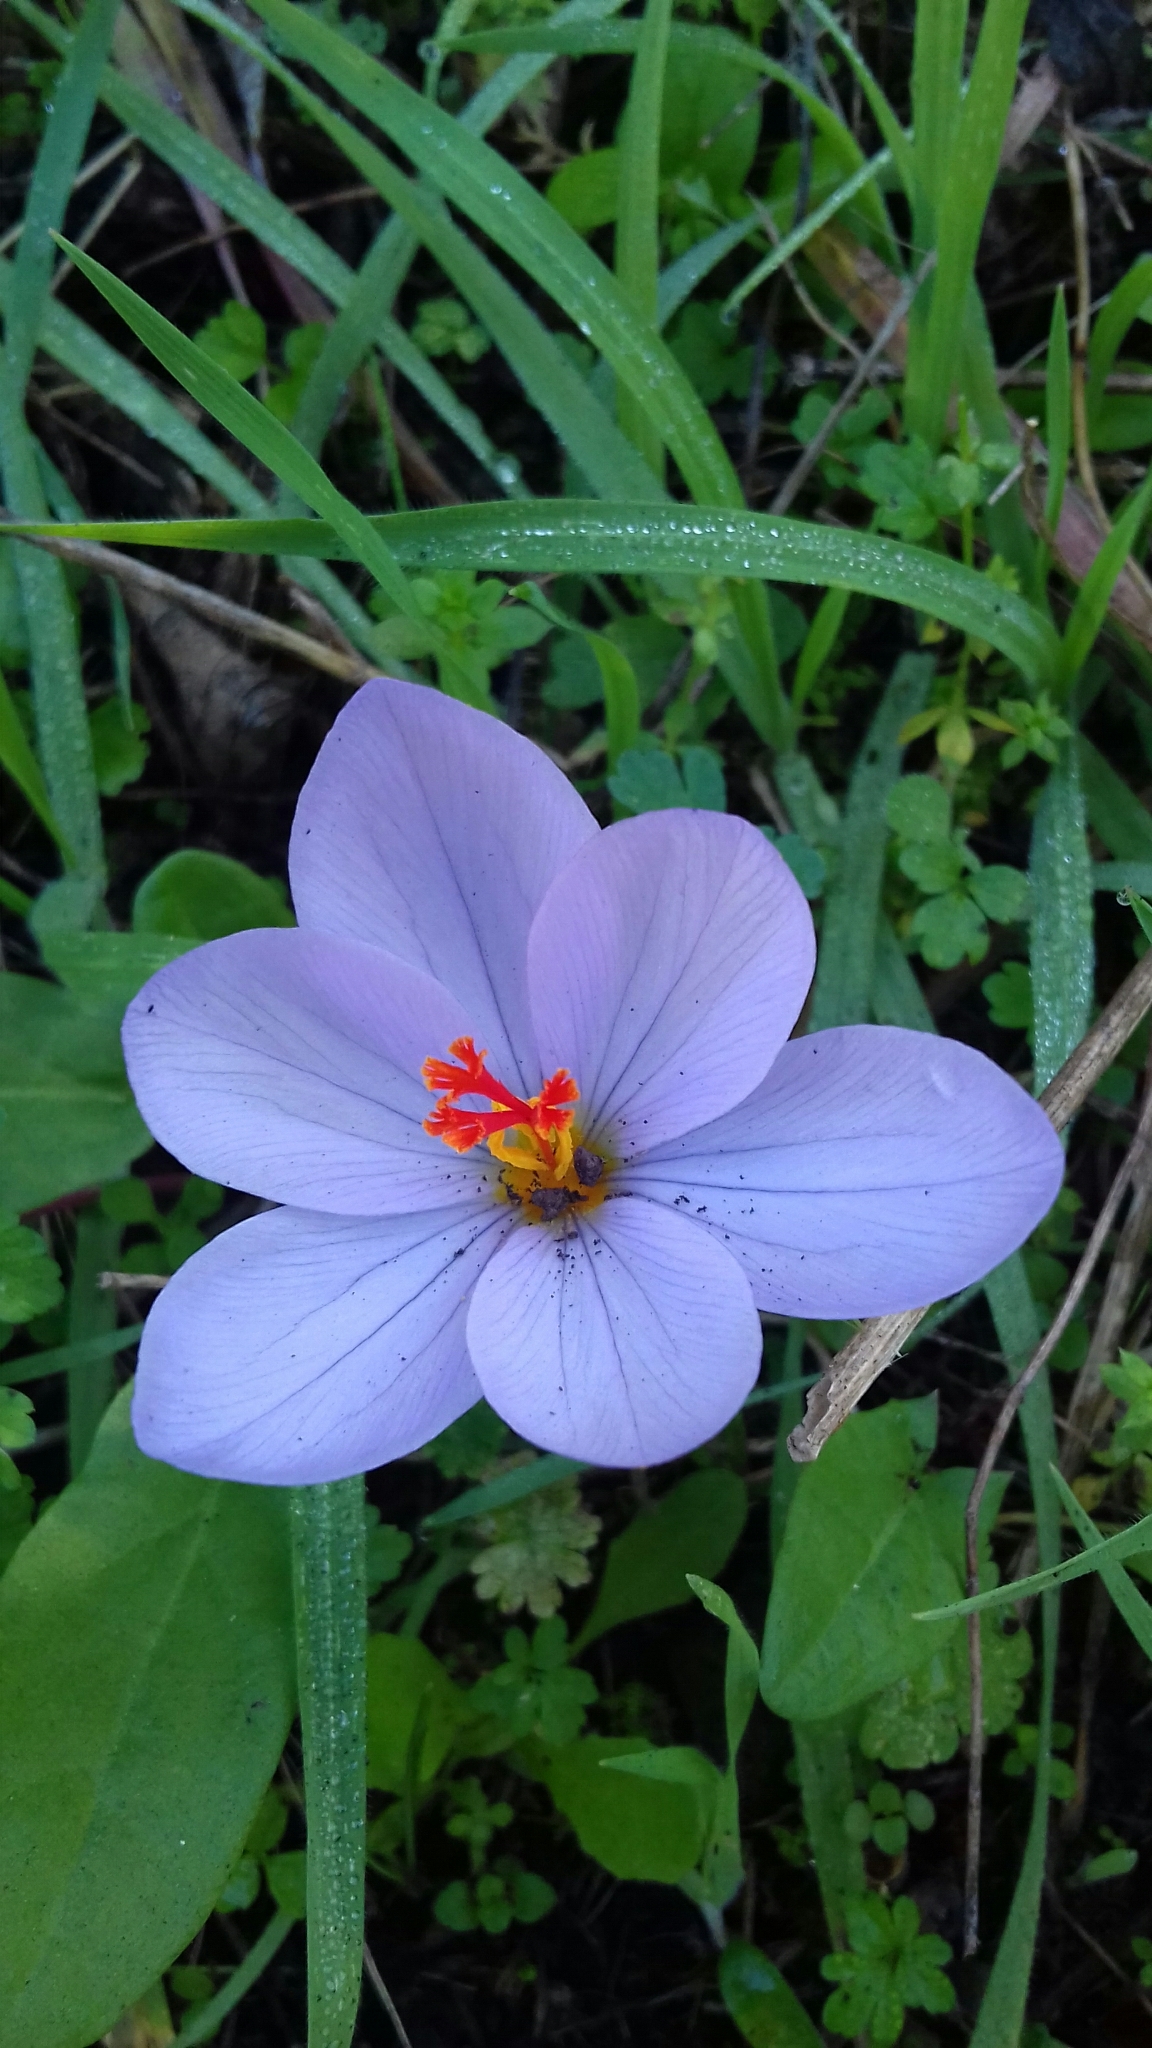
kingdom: Plantae
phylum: Tracheophyta
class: Liliopsida
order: Asparagales
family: Iridaceae
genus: Crocus
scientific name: Crocus longiflorus
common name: Italian crocus
